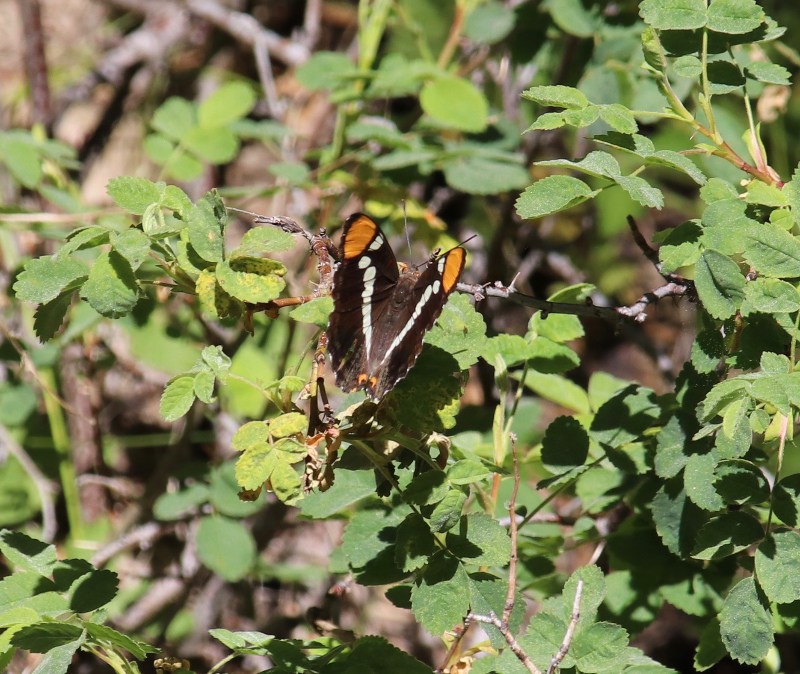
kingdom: Animalia
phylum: Arthropoda
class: Insecta
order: Lepidoptera
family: Nymphalidae
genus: Limenitis
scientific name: Limenitis bredowii
